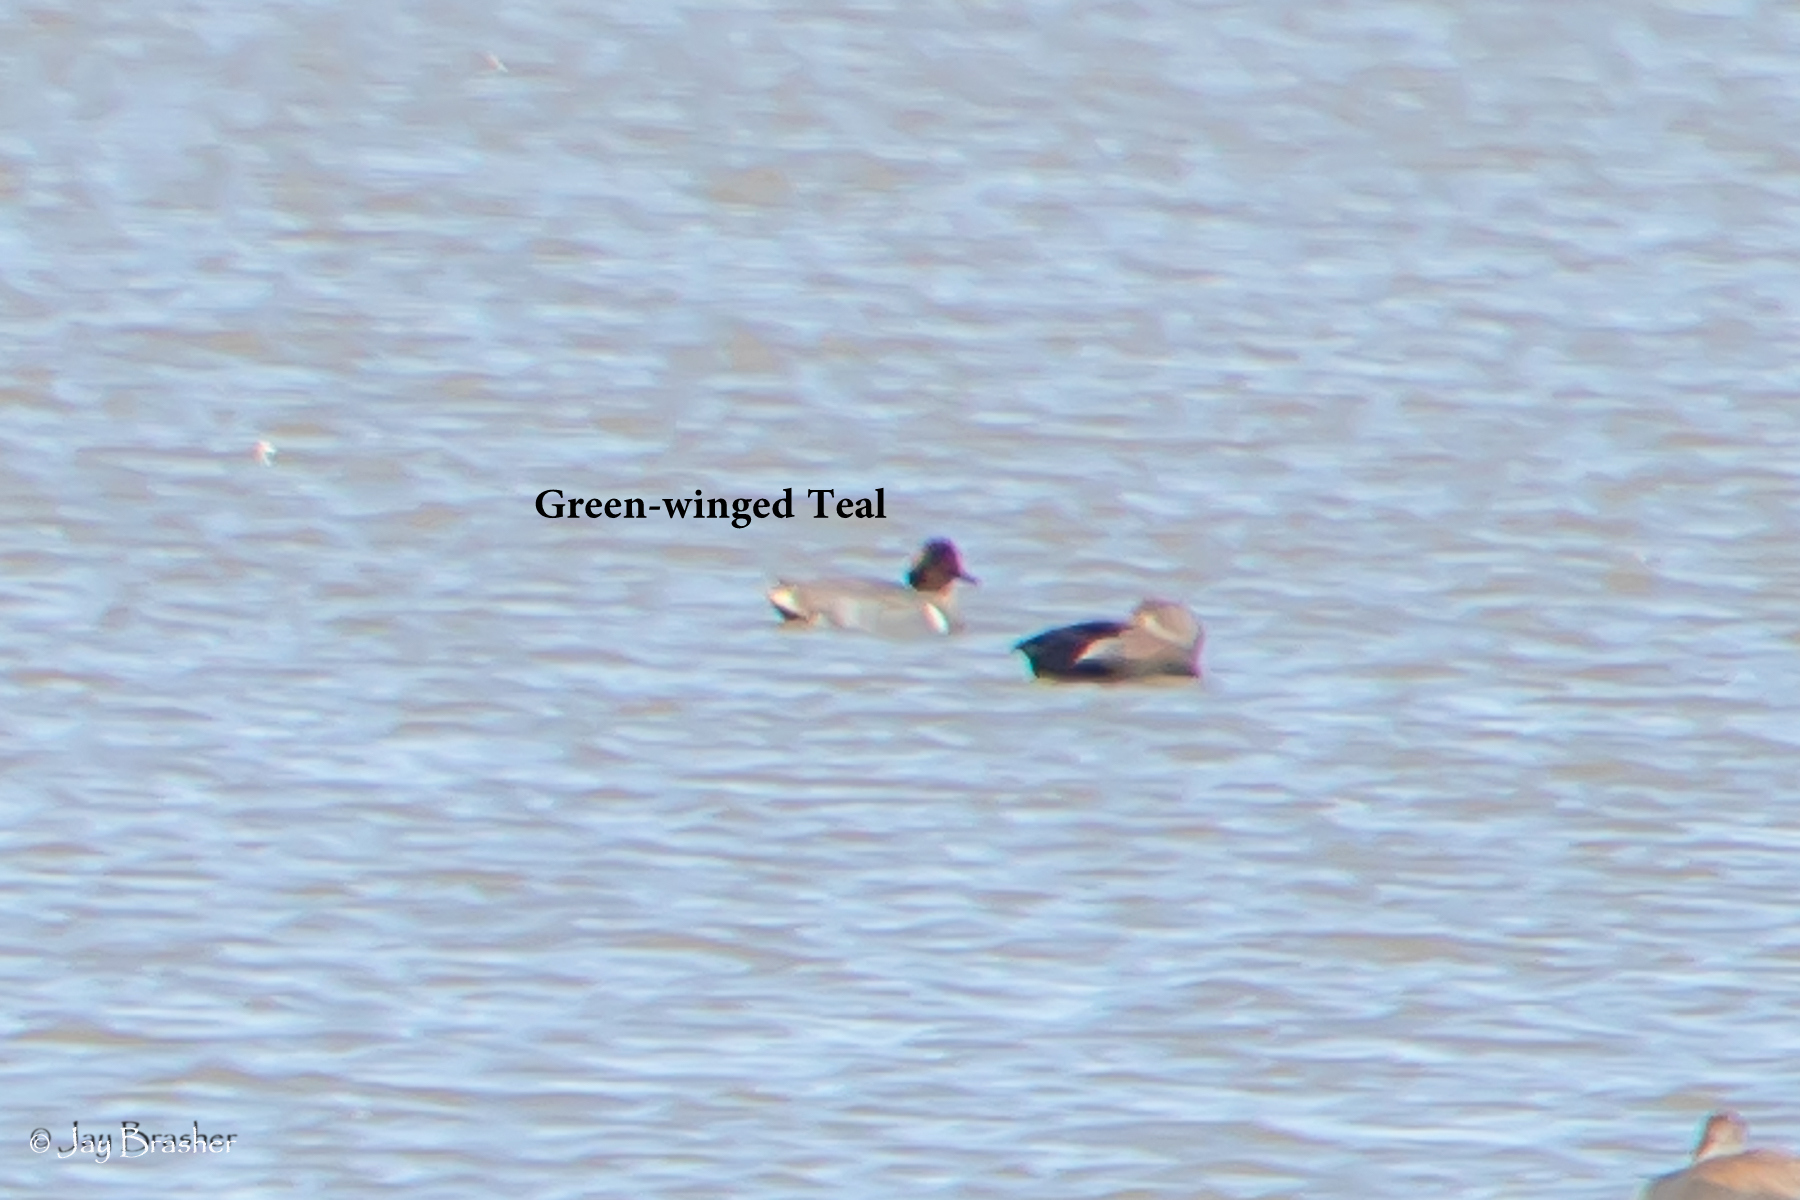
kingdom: Animalia
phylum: Chordata
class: Aves
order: Anseriformes
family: Anatidae
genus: Anas
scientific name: Anas crecca
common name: Eurasian teal
